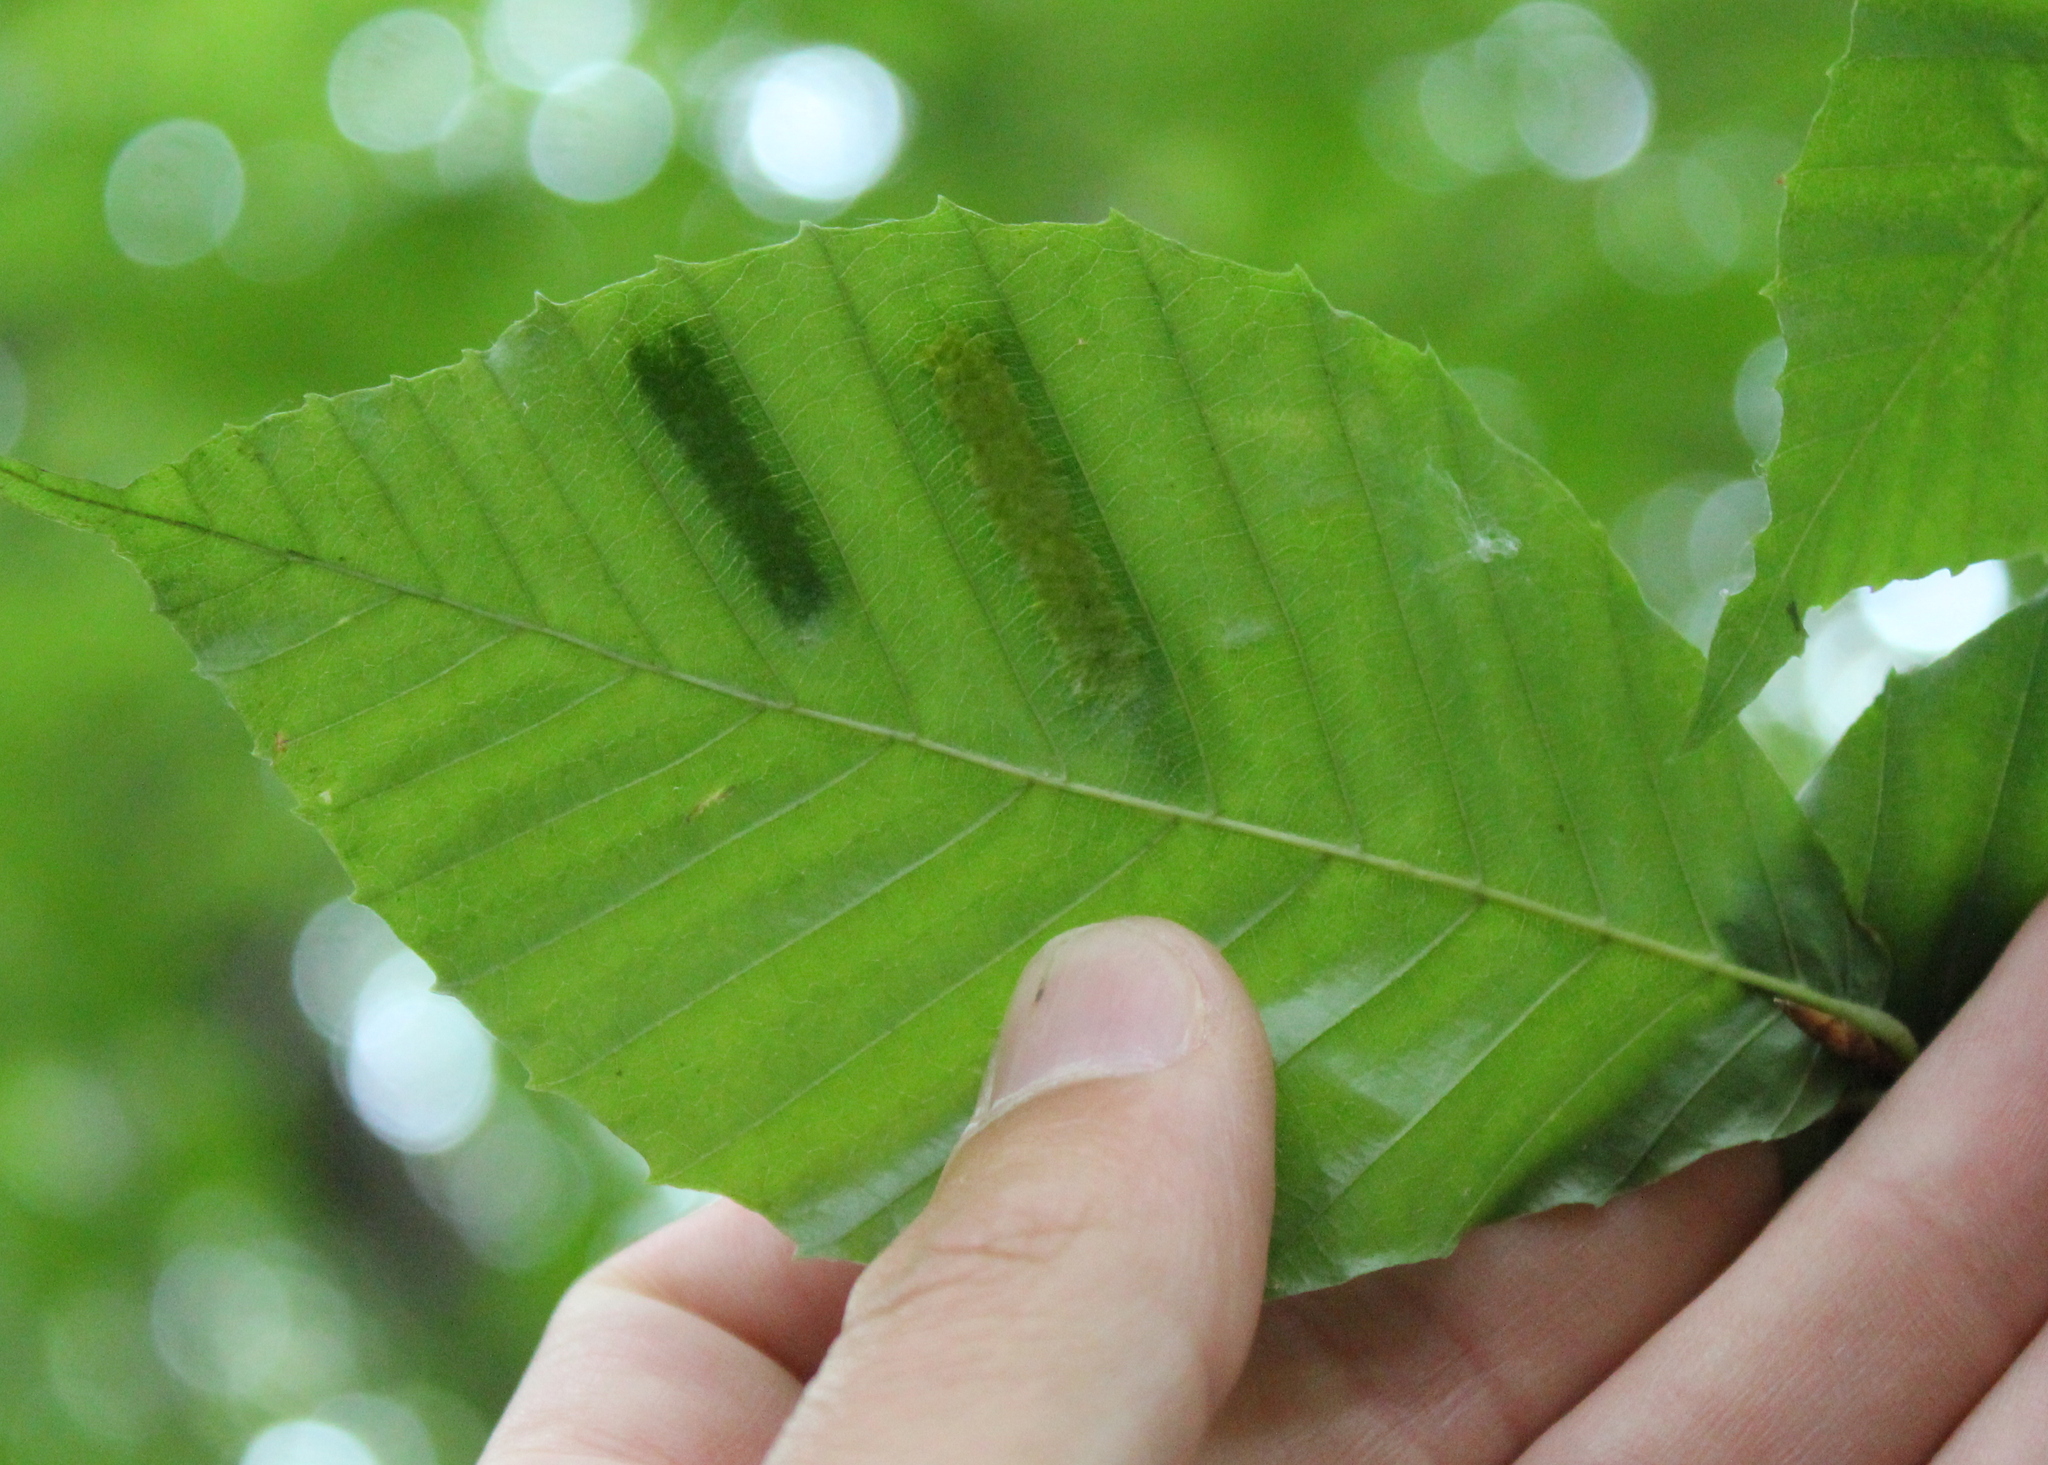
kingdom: Plantae
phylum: Tracheophyta
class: Magnoliopsida
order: Fagales
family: Fagaceae
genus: Fagus
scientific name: Fagus grandifolia
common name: American beech
